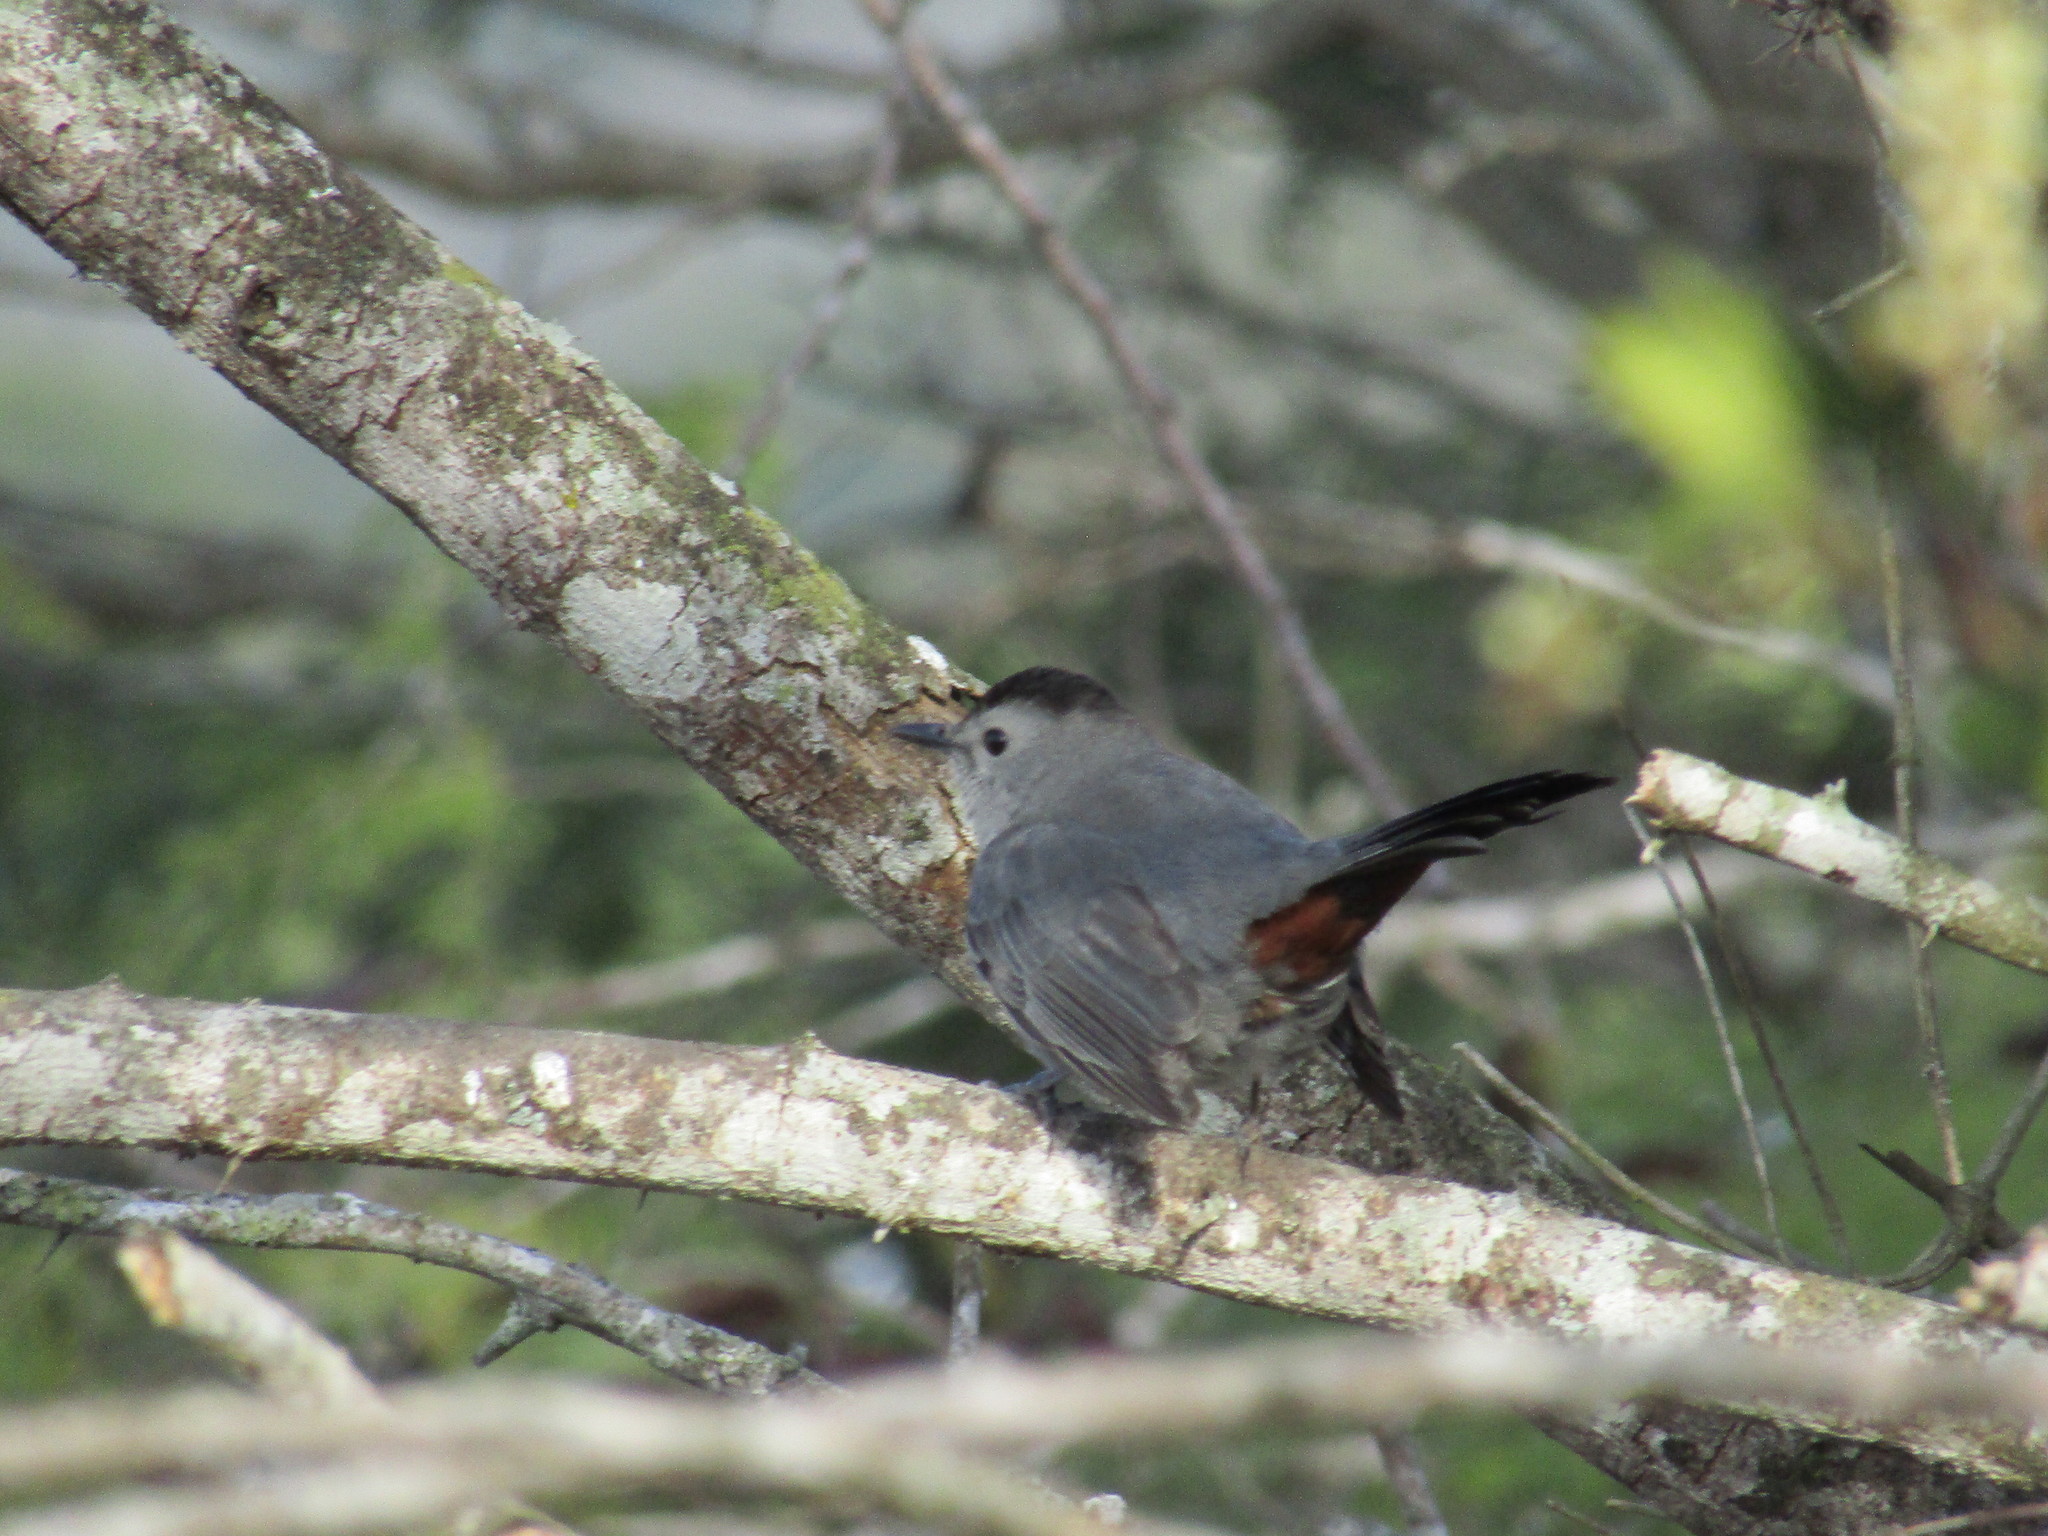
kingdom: Animalia
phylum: Chordata
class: Aves
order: Passeriformes
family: Mimidae
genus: Dumetella
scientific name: Dumetella carolinensis
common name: Gray catbird
